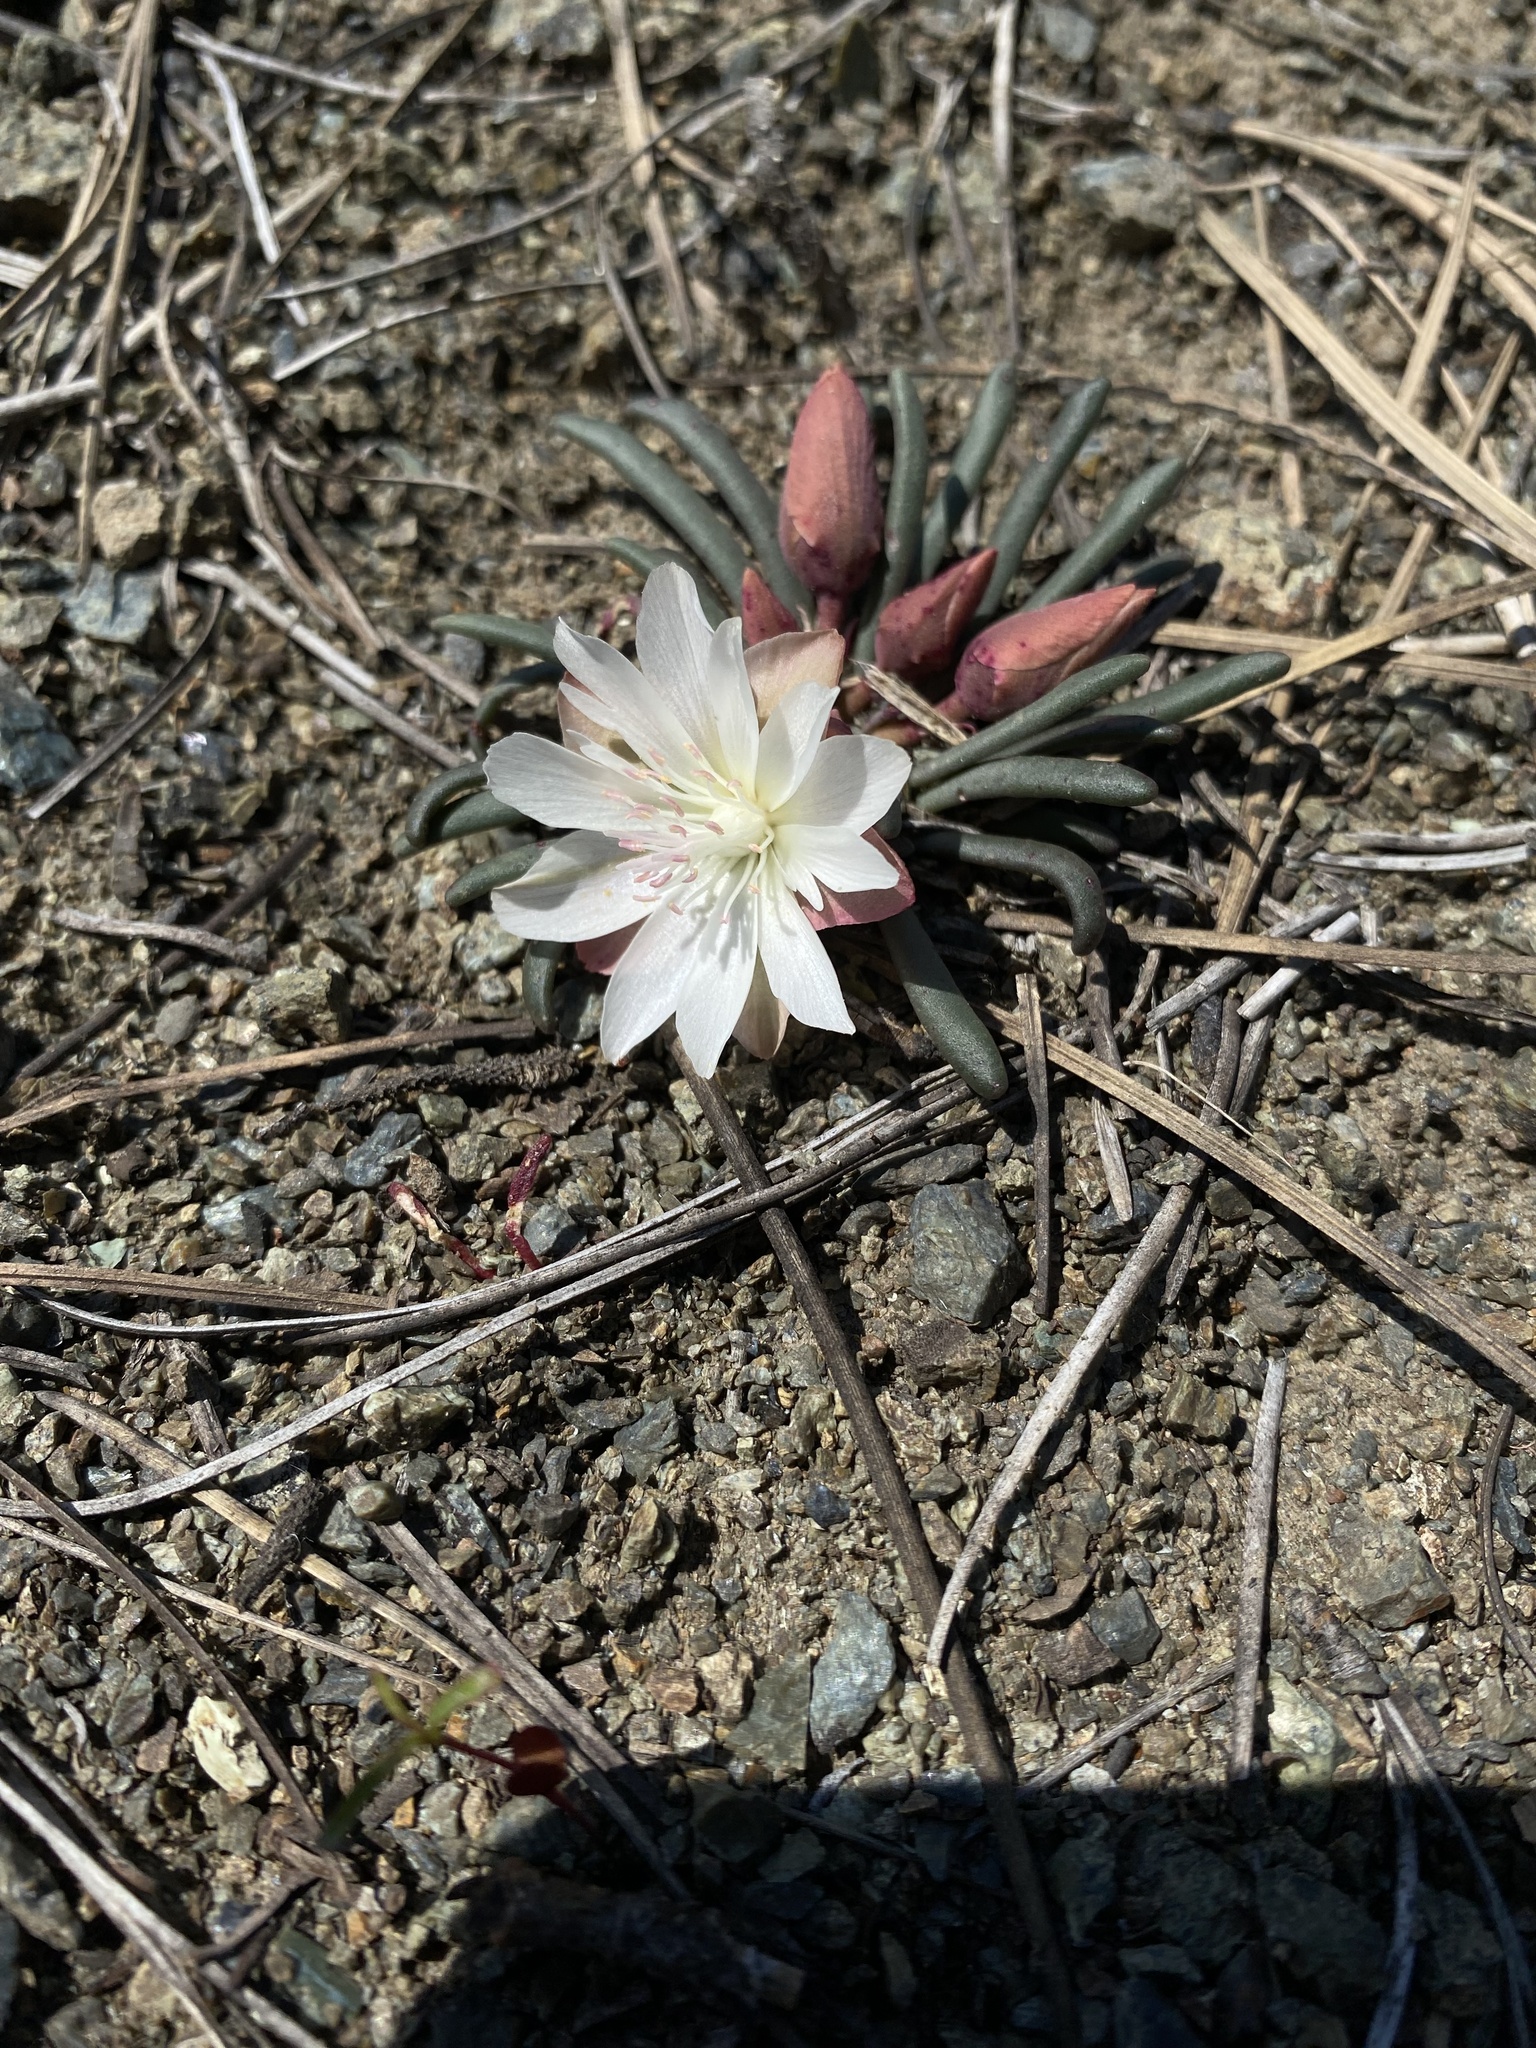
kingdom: Plantae
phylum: Tracheophyta
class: Magnoliopsida
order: Caryophyllales
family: Montiaceae
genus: Lewisia
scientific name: Lewisia rediviva
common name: Bitter-root
